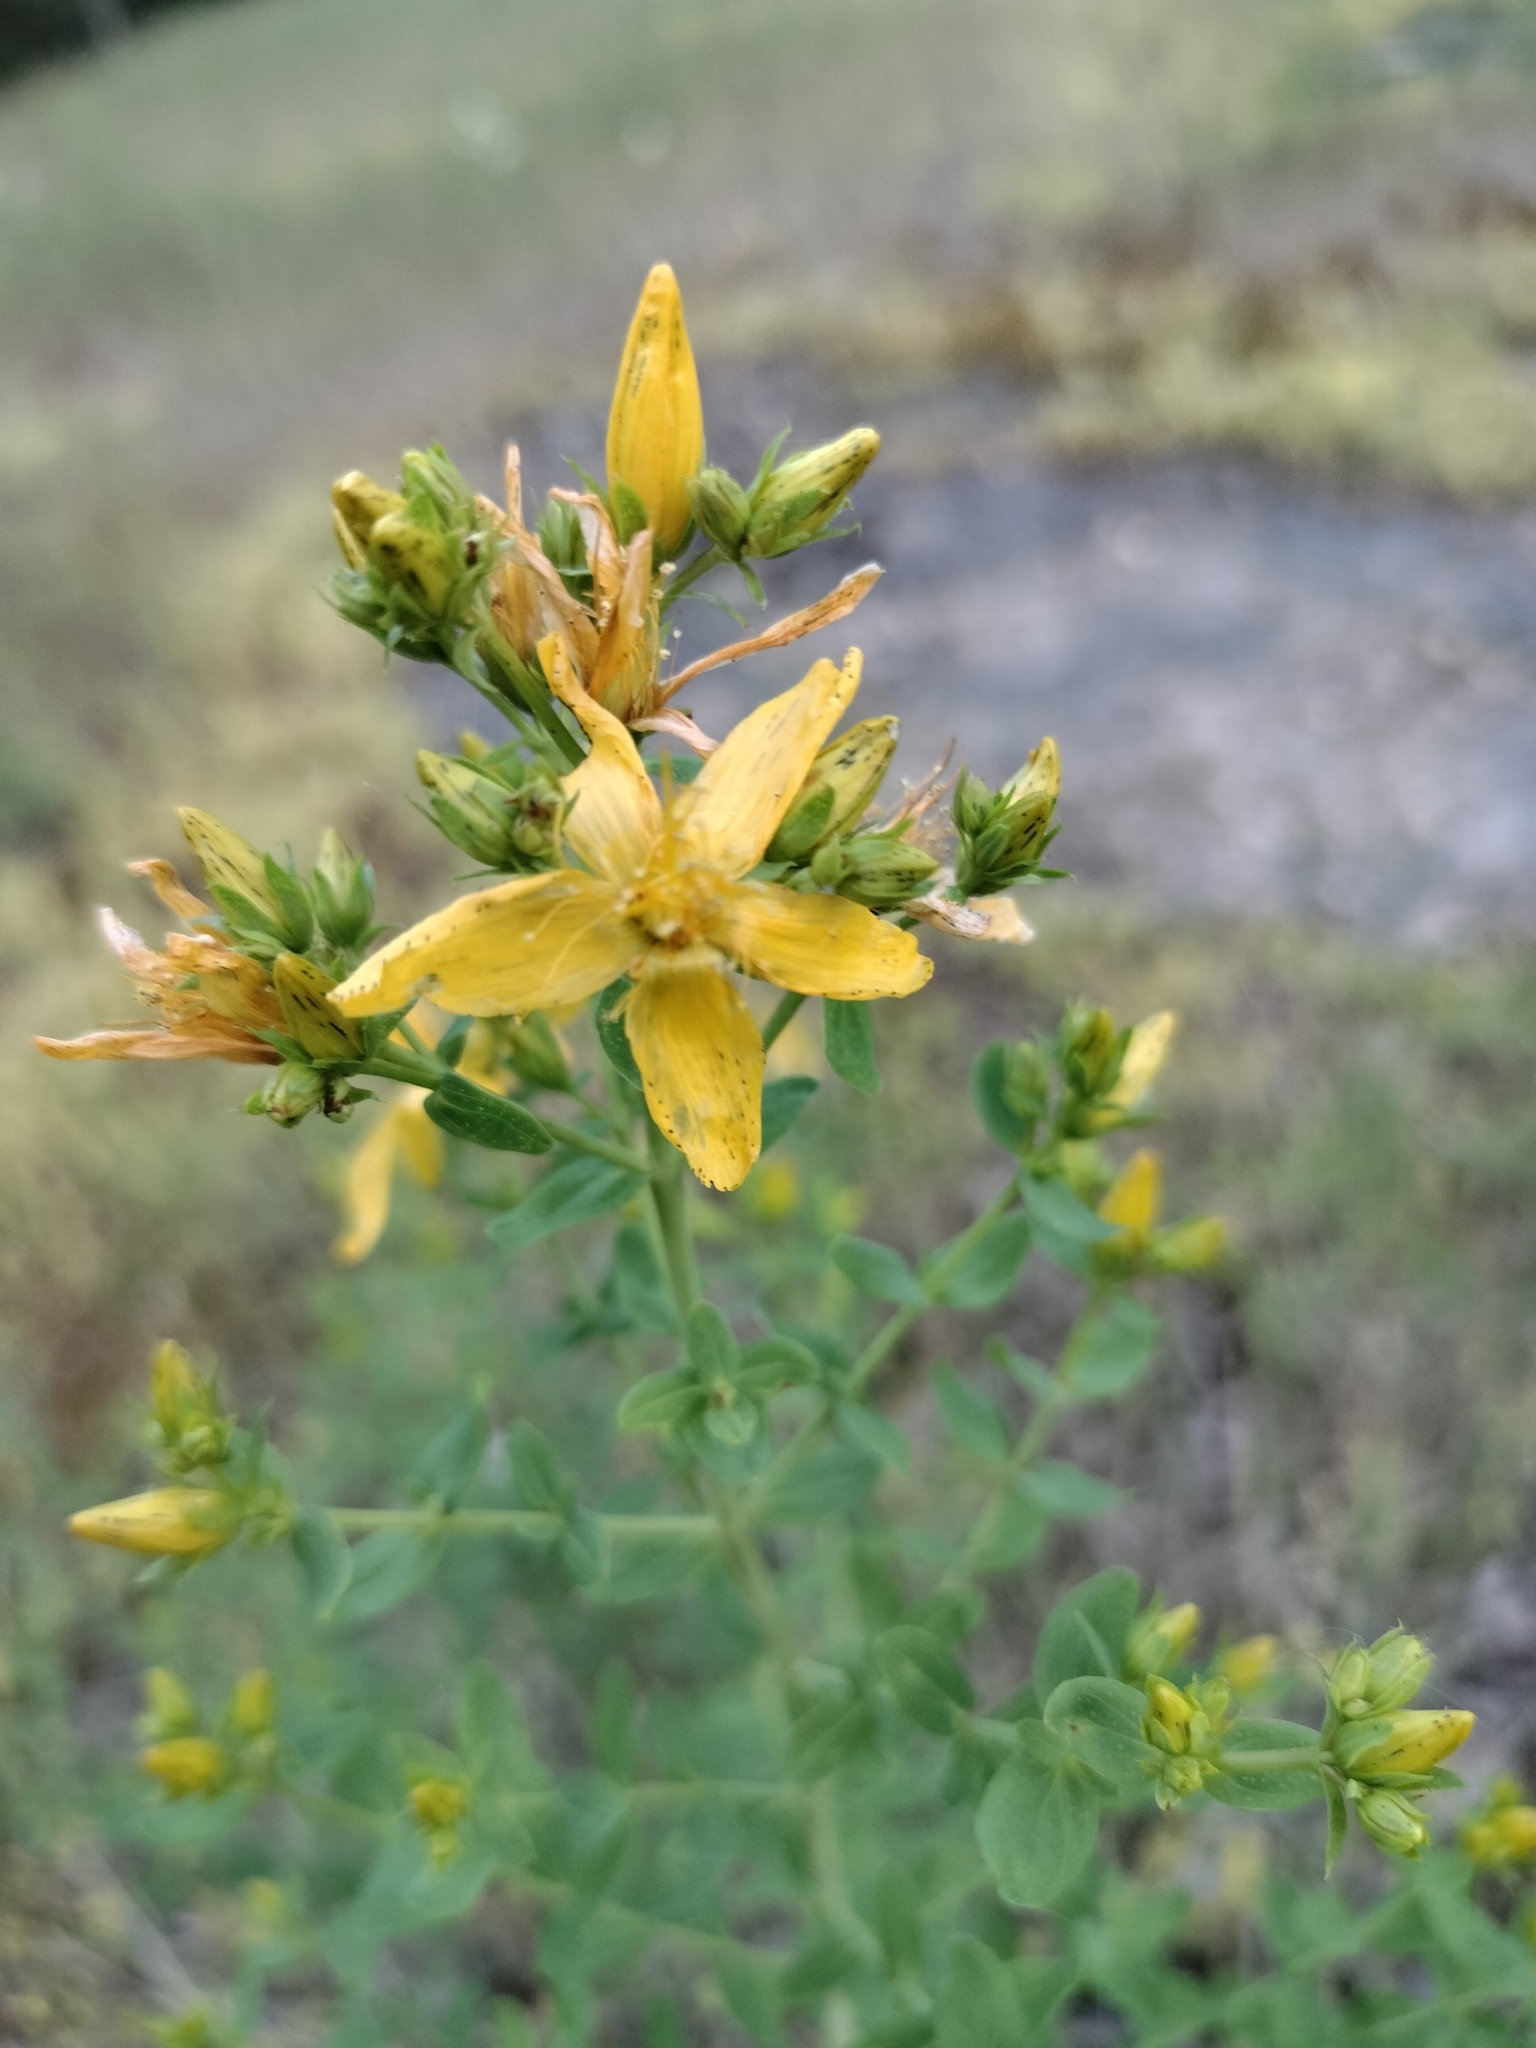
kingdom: Plantae
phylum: Tracheophyta
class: Magnoliopsida
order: Malpighiales
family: Hypericaceae
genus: Hypericum
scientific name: Hypericum perforatum
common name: Common st. johnswort
